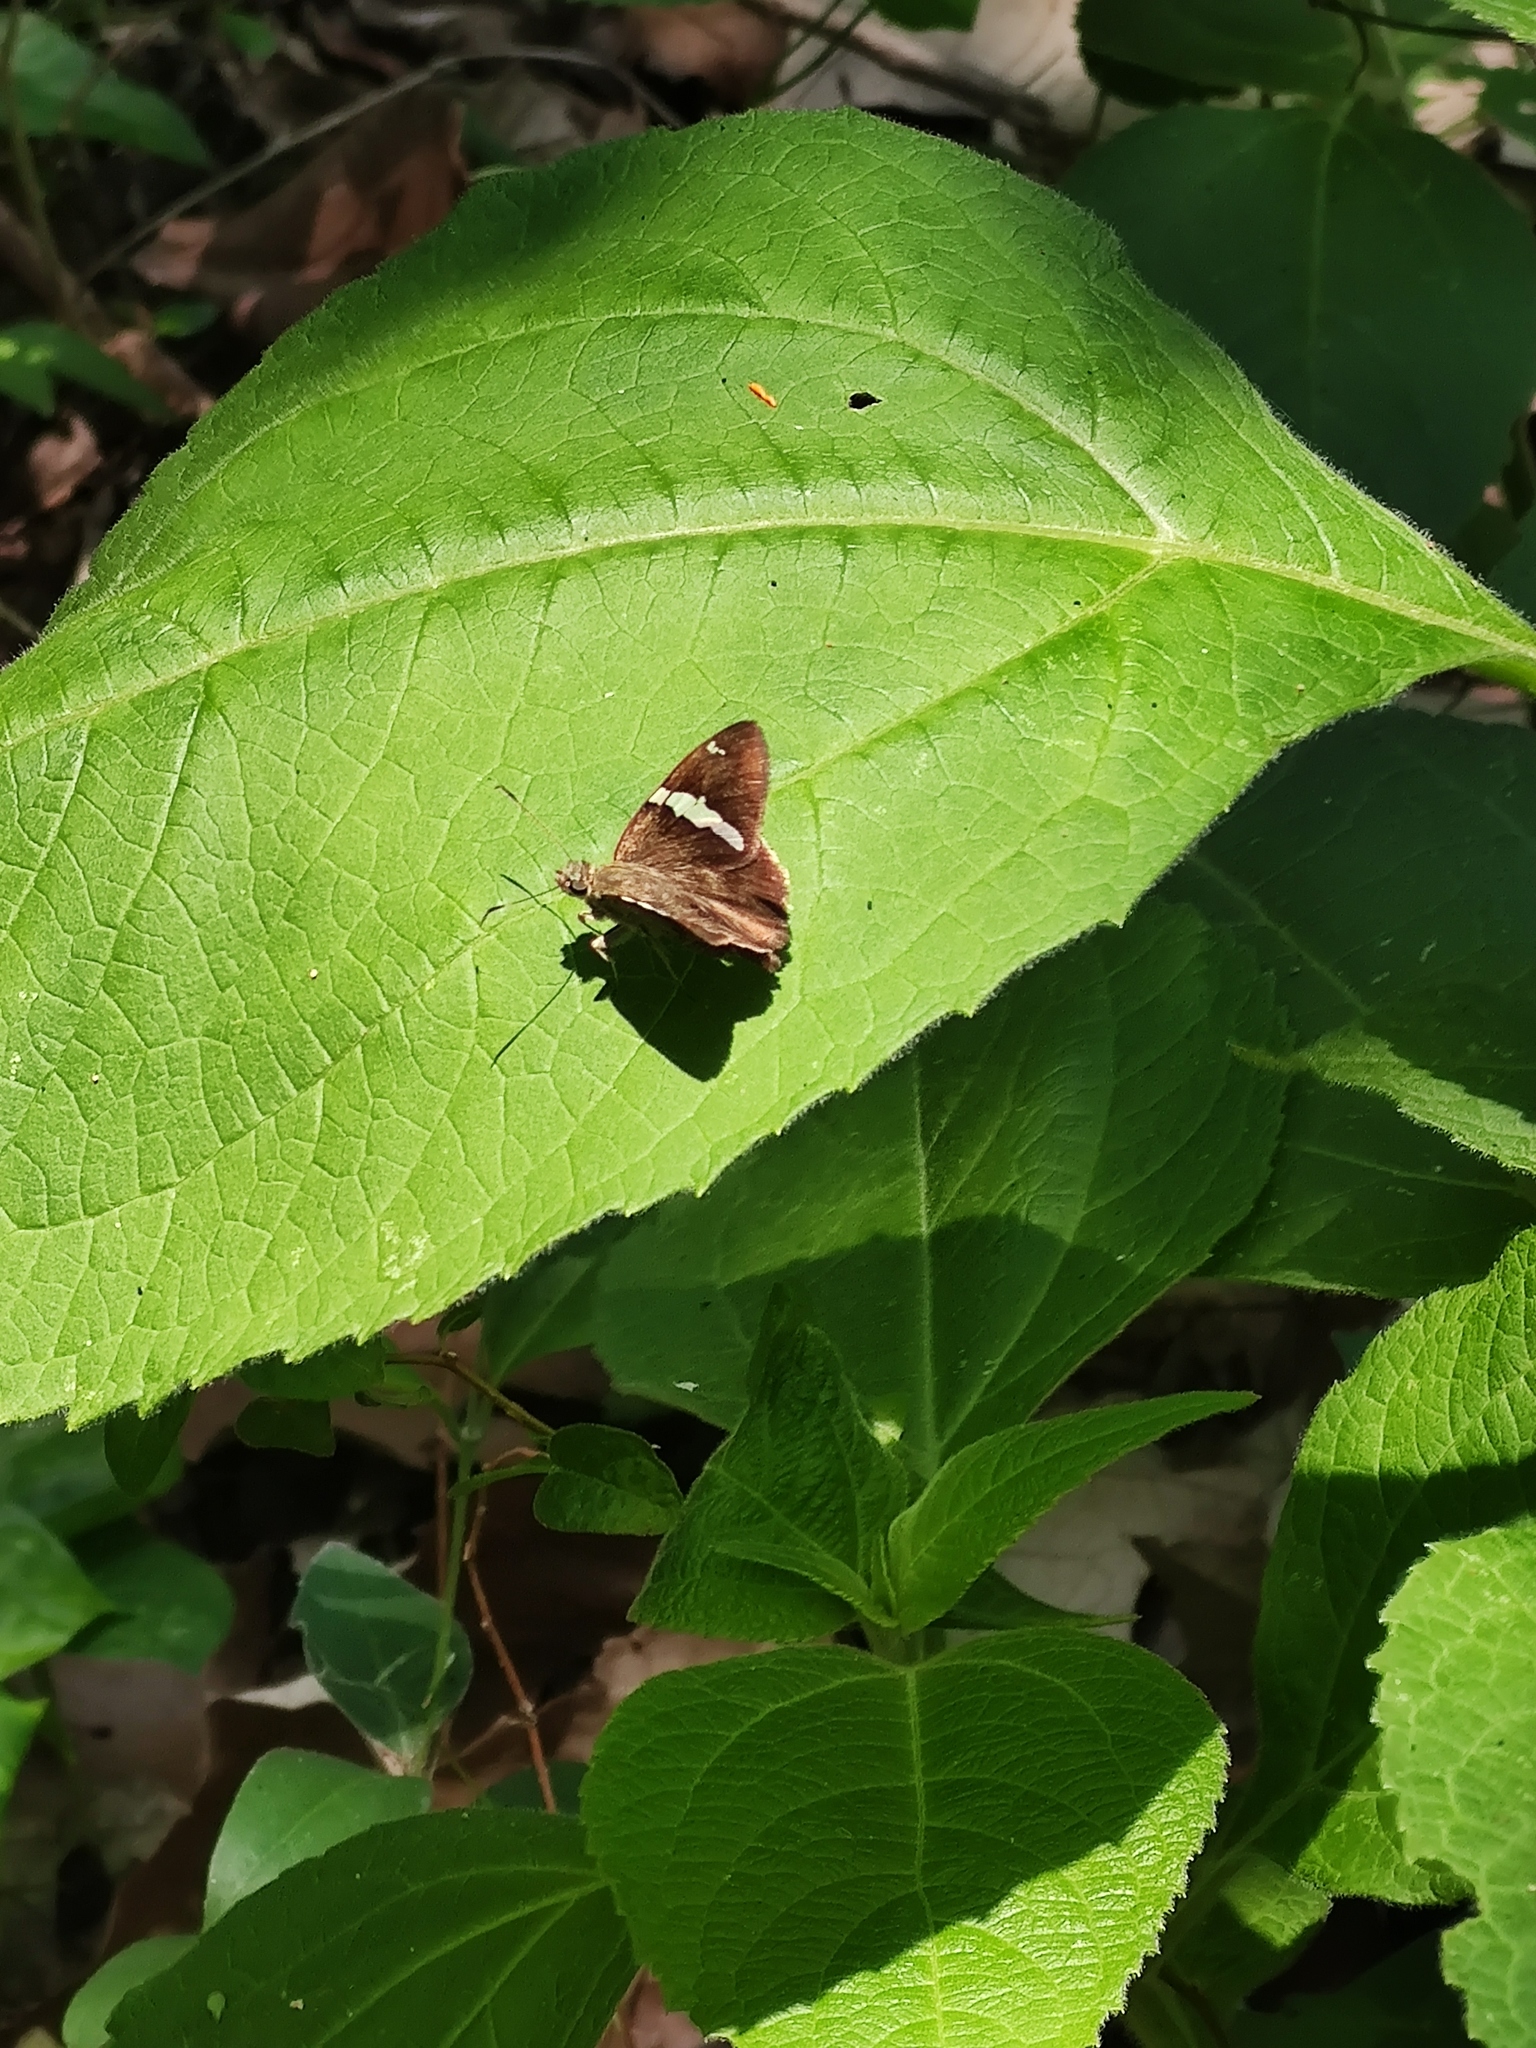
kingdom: Animalia
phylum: Arthropoda
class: Insecta
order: Lepidoptera
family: Hesperiidae
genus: Autochton
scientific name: Autochton neis
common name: Broad-banded skipper
